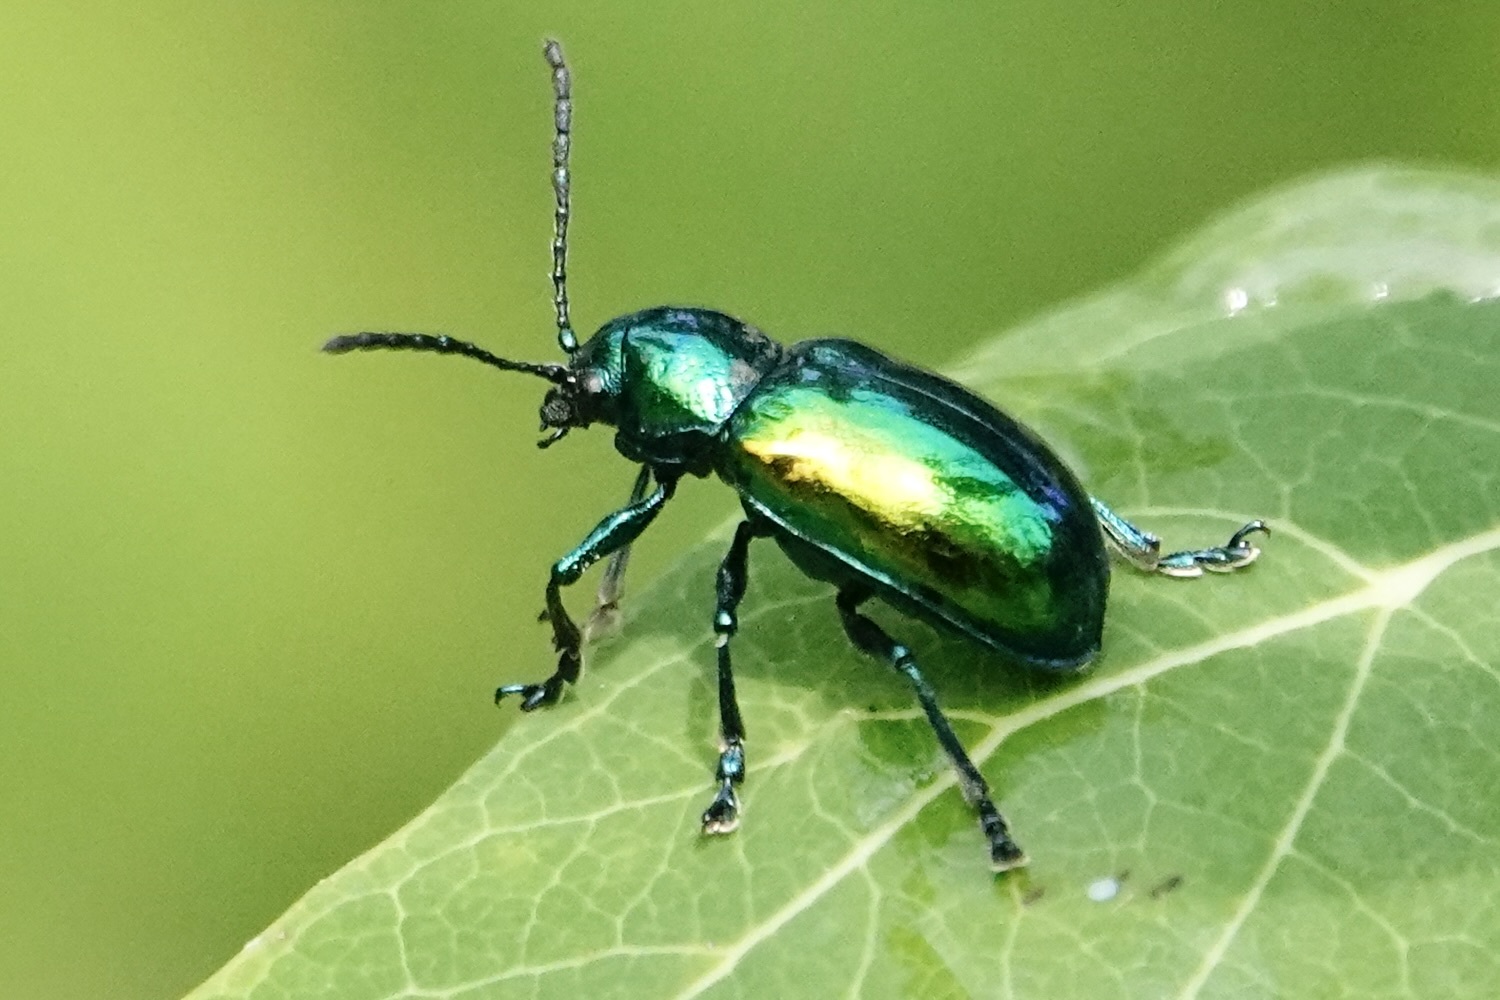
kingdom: Animalia
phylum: Arthropoda
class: Insecta
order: Coleoptera
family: Chrysomelidae
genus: Chrysochus
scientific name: Chrysochus auratus
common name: Dogbane leaf beetle
